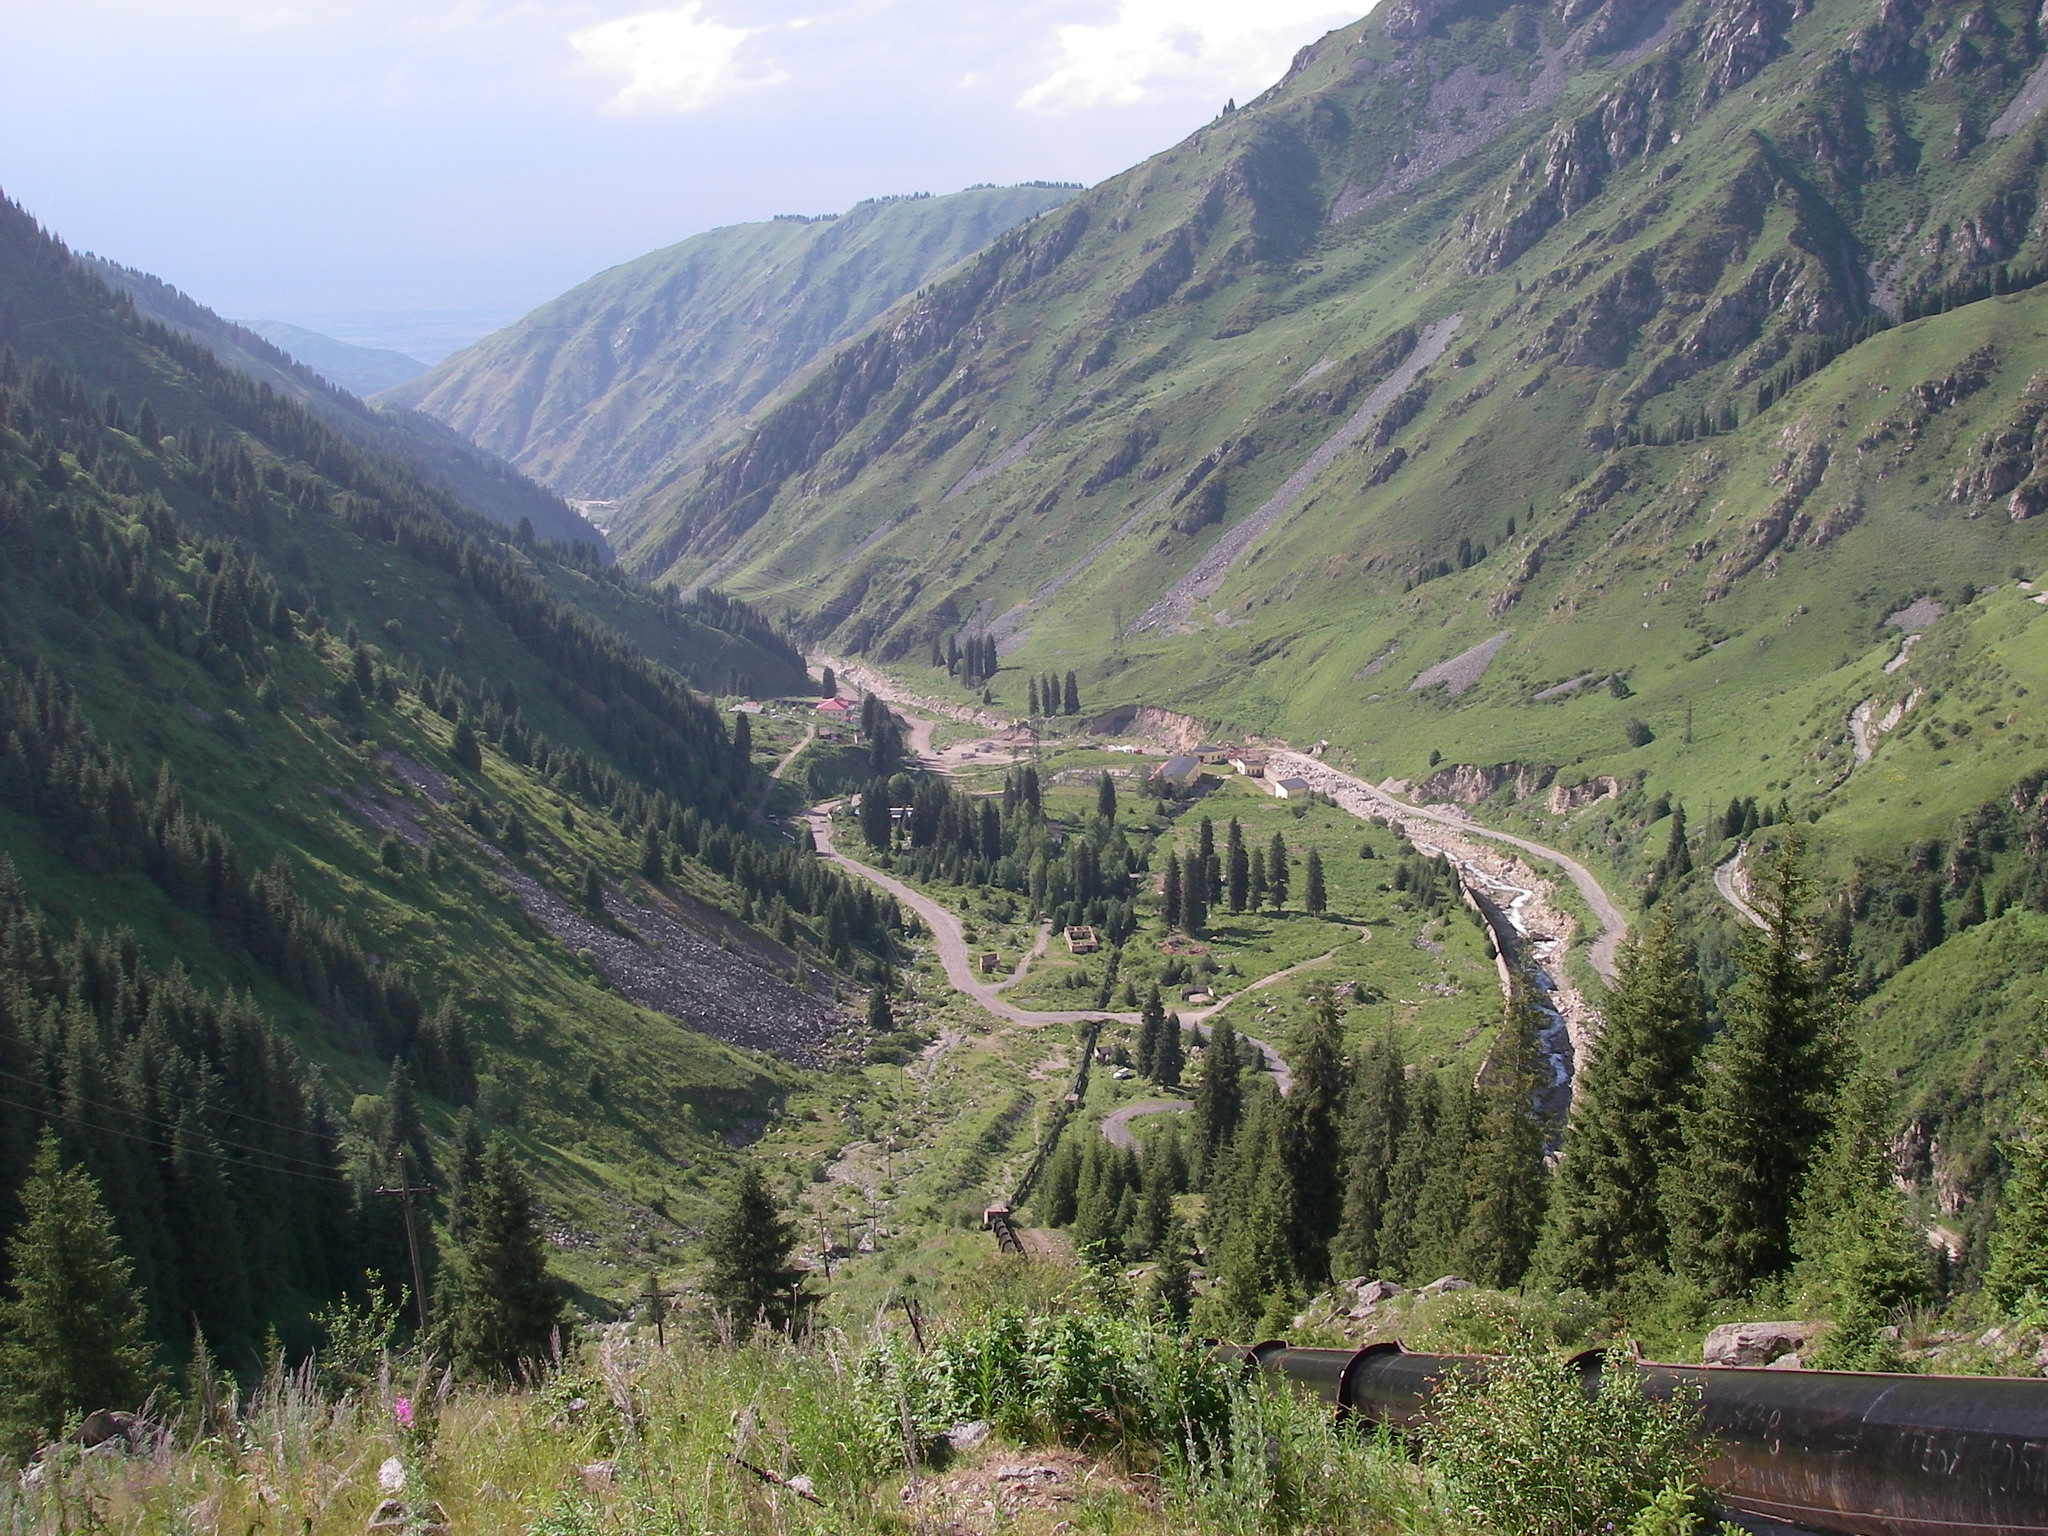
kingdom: Plantae
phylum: Tracheophyta
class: Pinopsida
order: Pinales
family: Pinaceae
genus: Picea
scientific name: Picea schrenkiana
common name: Asian spruce
